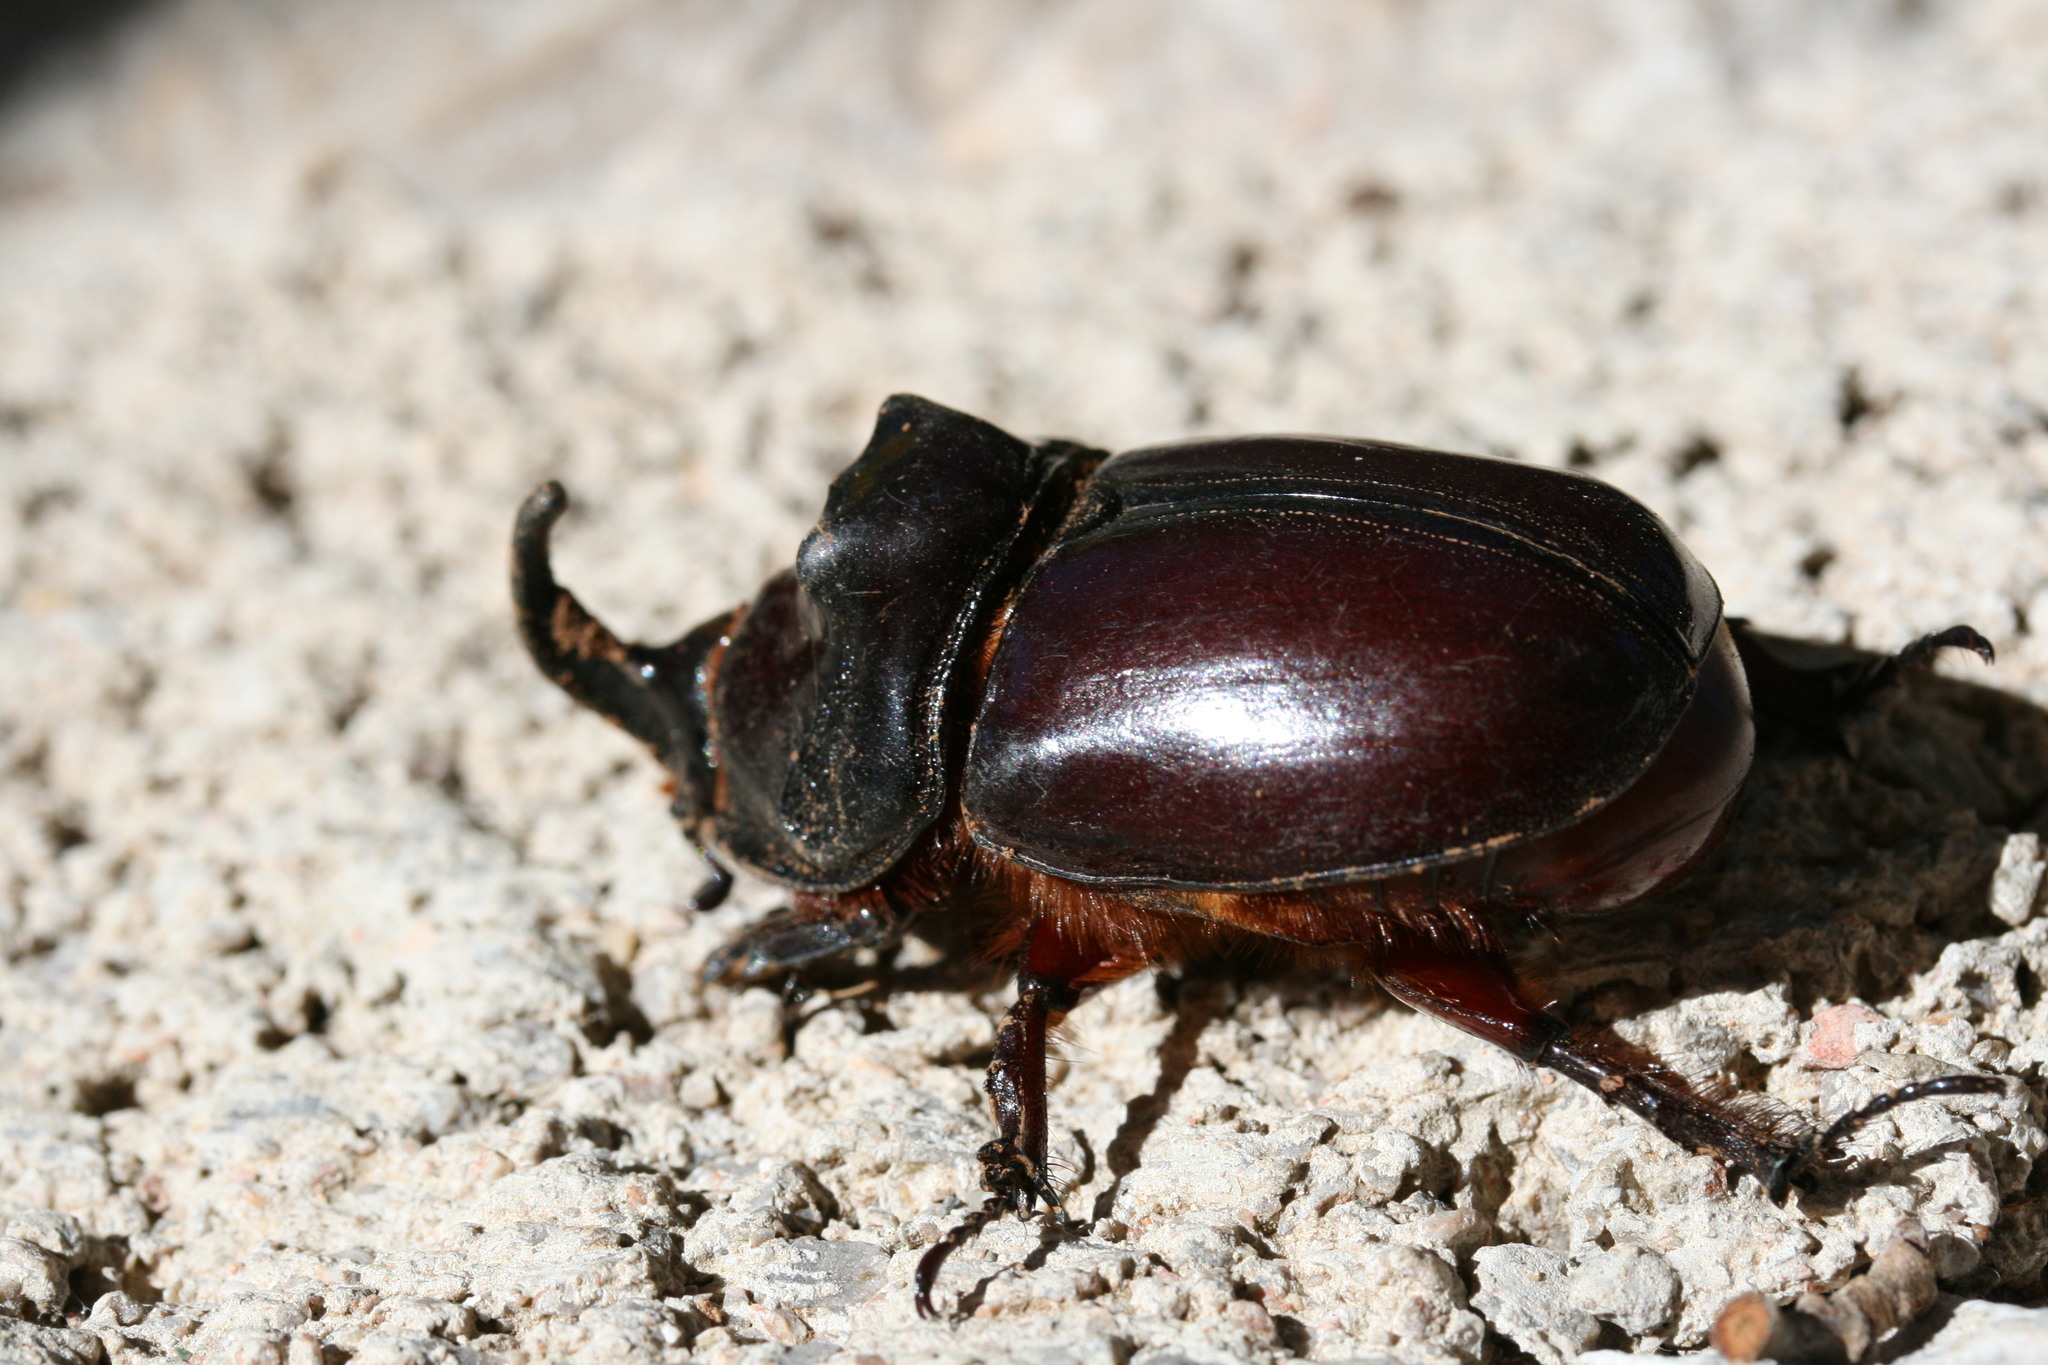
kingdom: Animalia
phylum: Arthropoda
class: Insecta
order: Coleoptera
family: Scarabaeidae
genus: Oryctes
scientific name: Oryctes nasicornis
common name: European rhinoceros beetle
